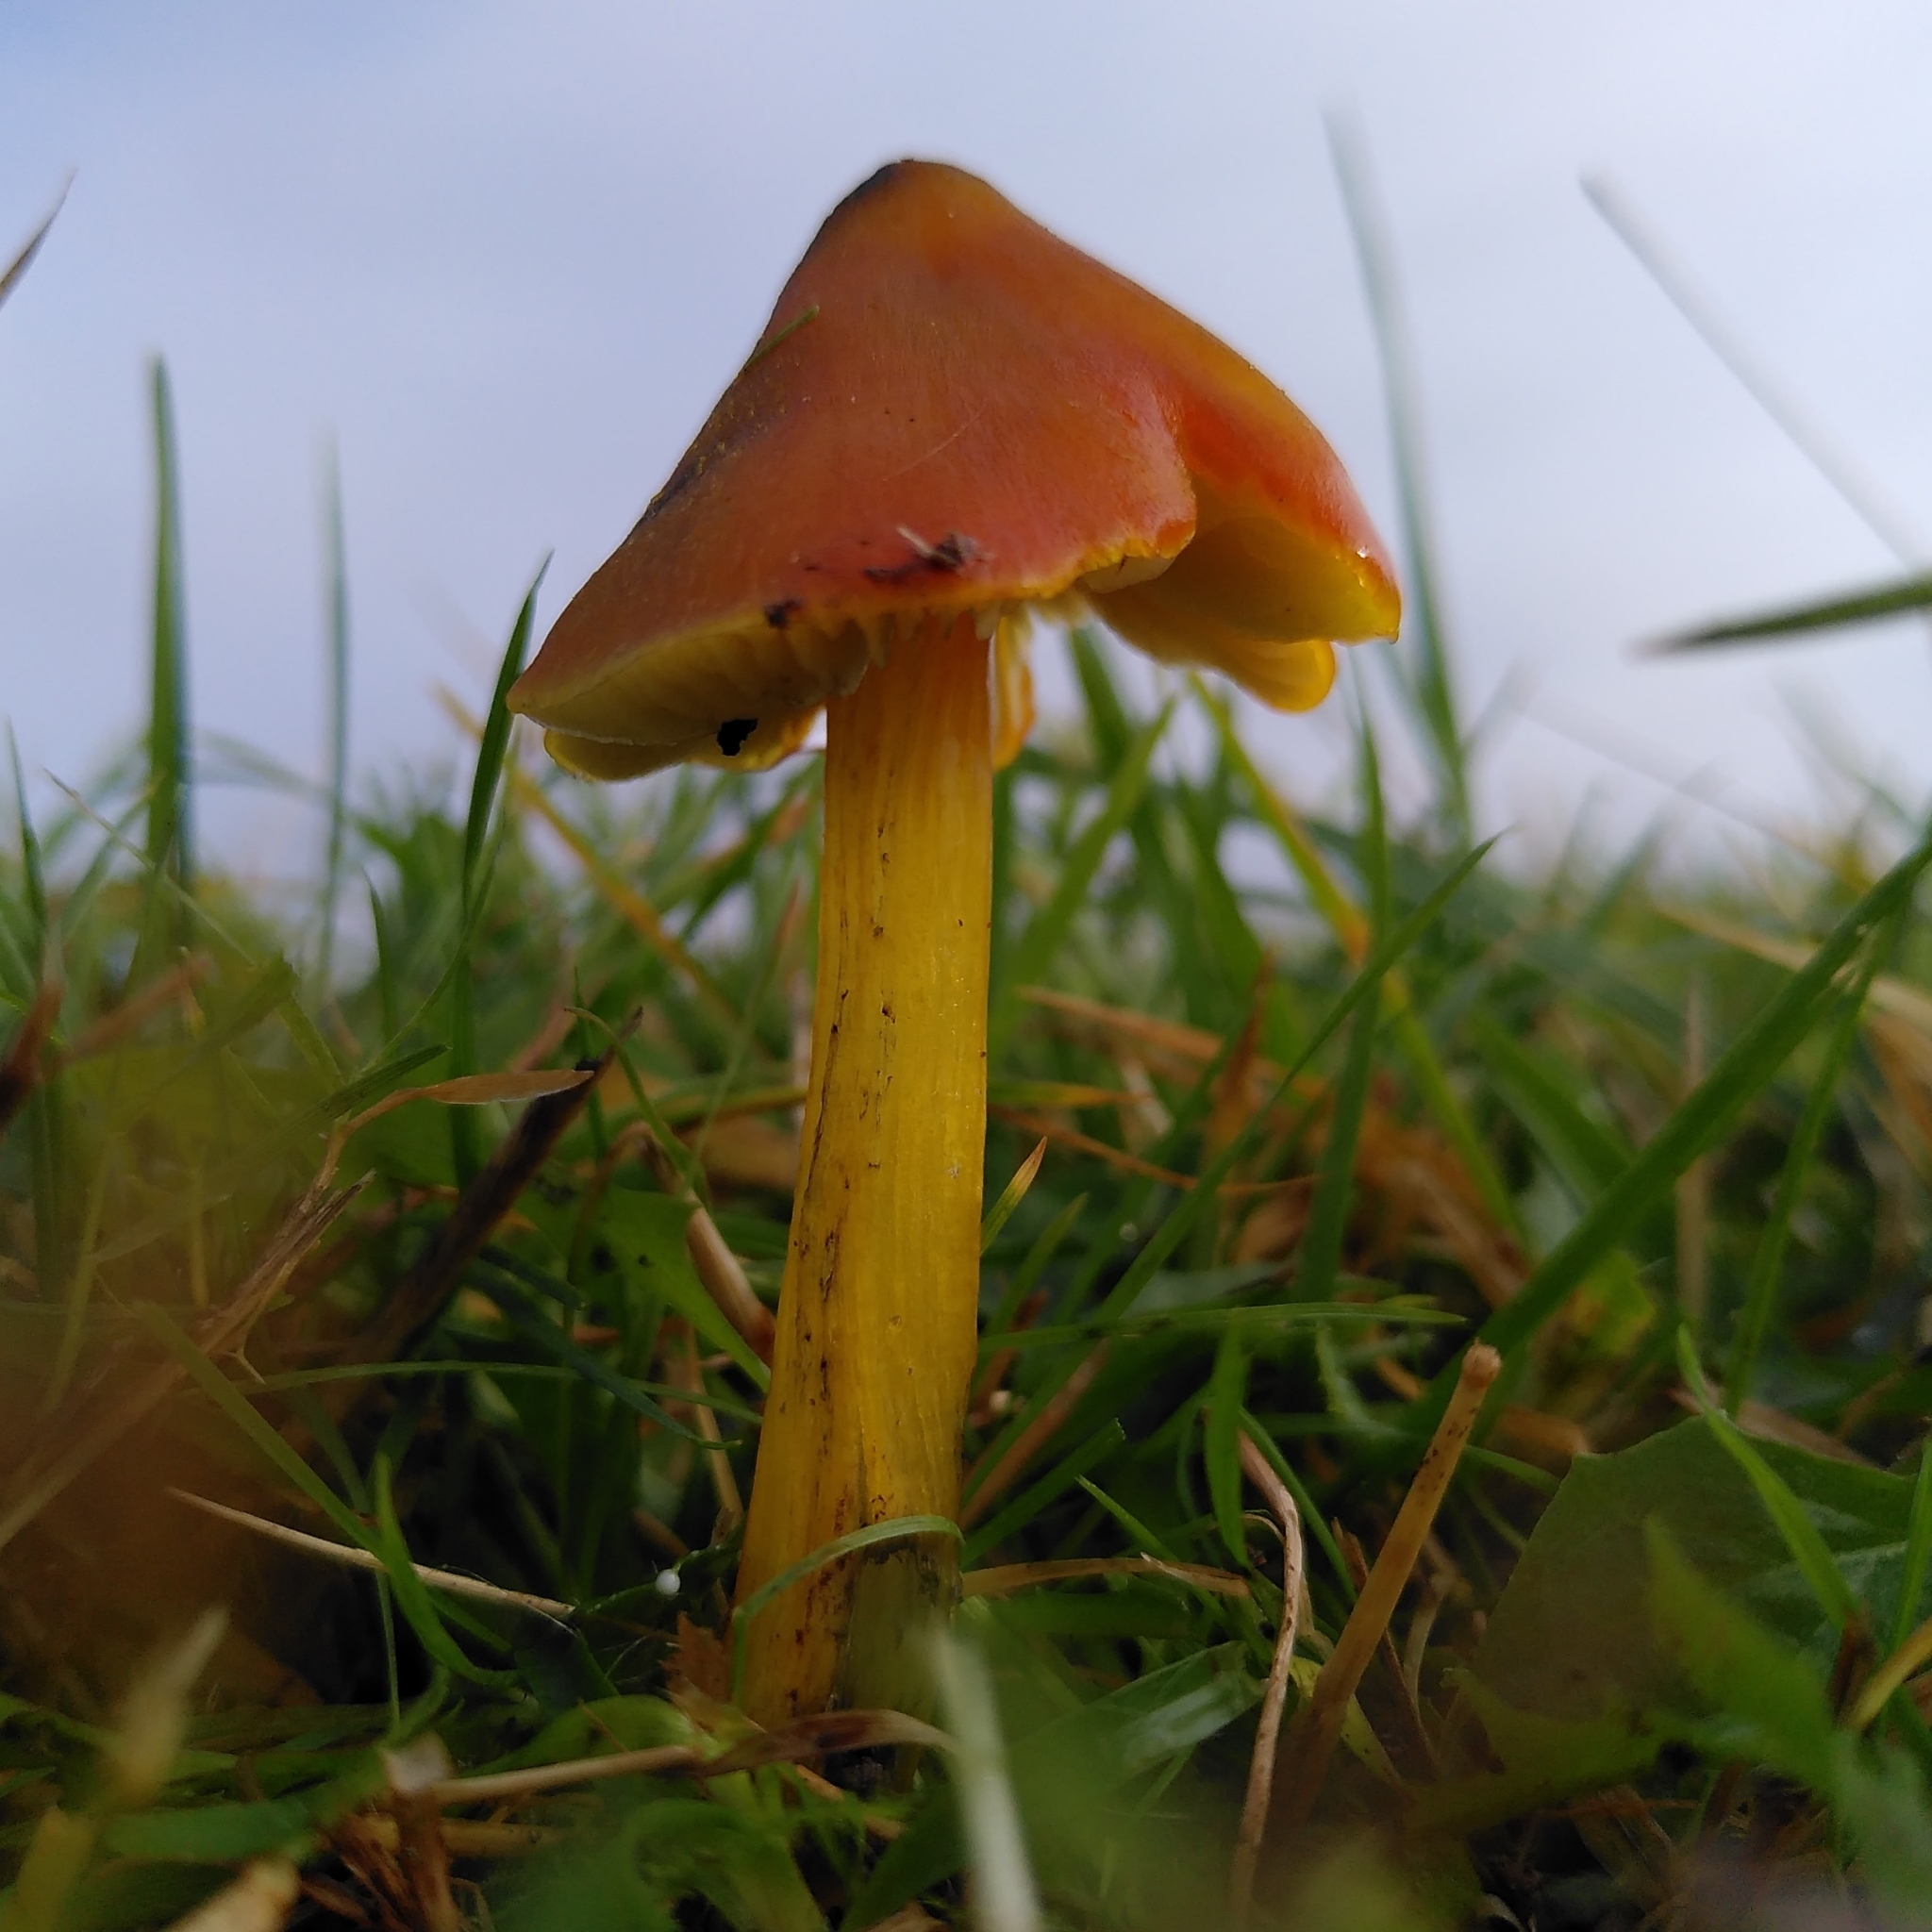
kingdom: Fungi
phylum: Basidiomycota
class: Agaricomycetes
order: Agaricales
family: Hygrophoraceae
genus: Hygrocybe
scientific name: Hygrocybe conica
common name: Blackening wax-cap
